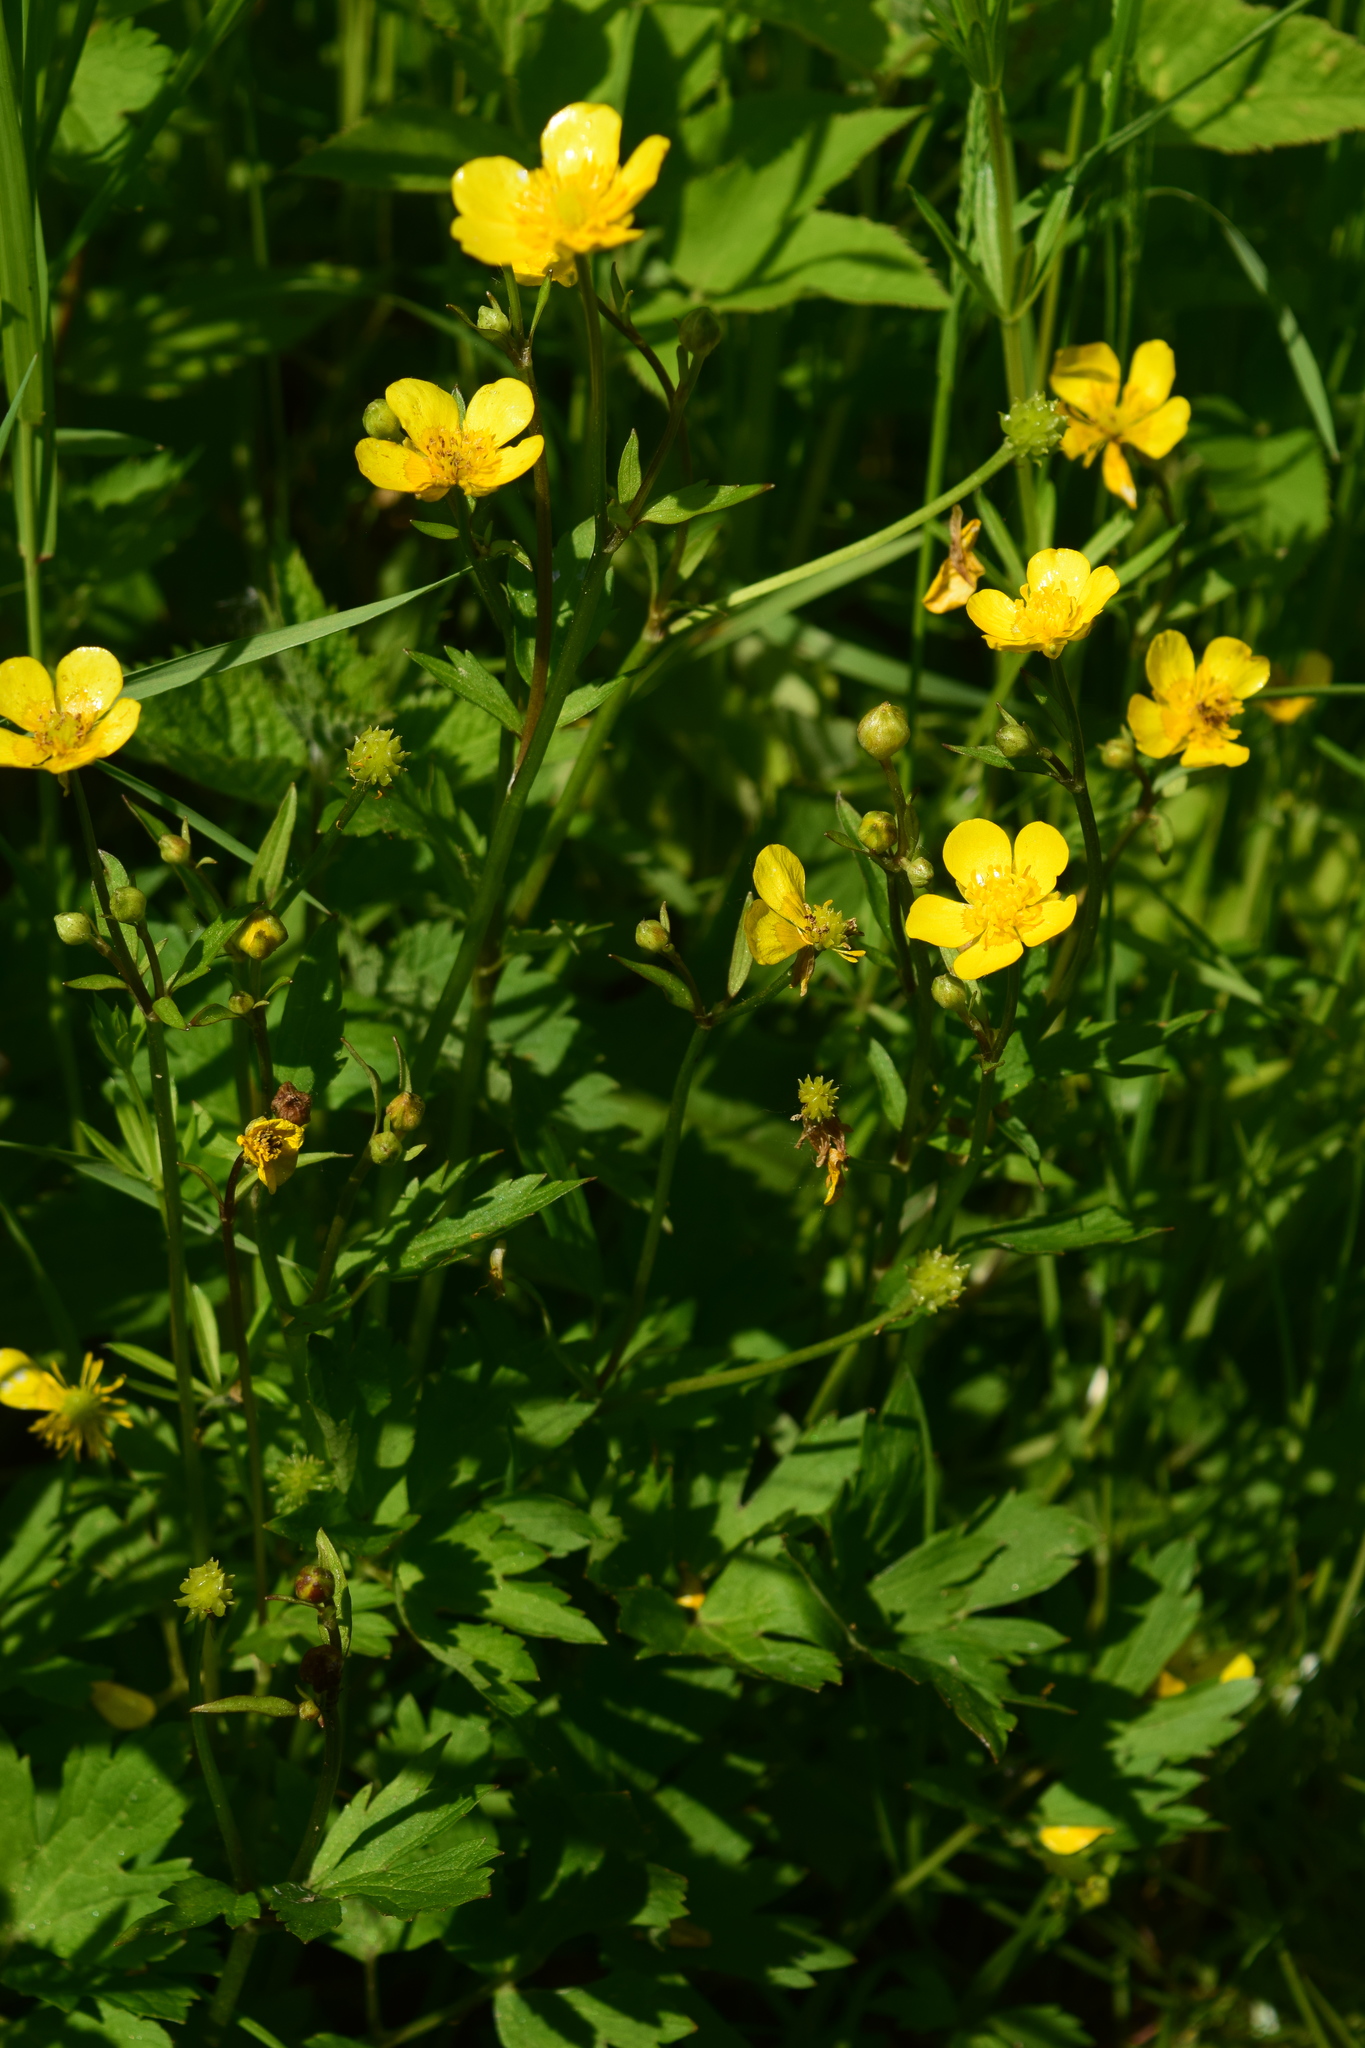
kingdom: Plantae
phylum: Tracheophyta
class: Magnoliopsida
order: Ranunculales
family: Ranunculaceae
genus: Ranunculus
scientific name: Ranunculus repens
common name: Creeping buttercup
